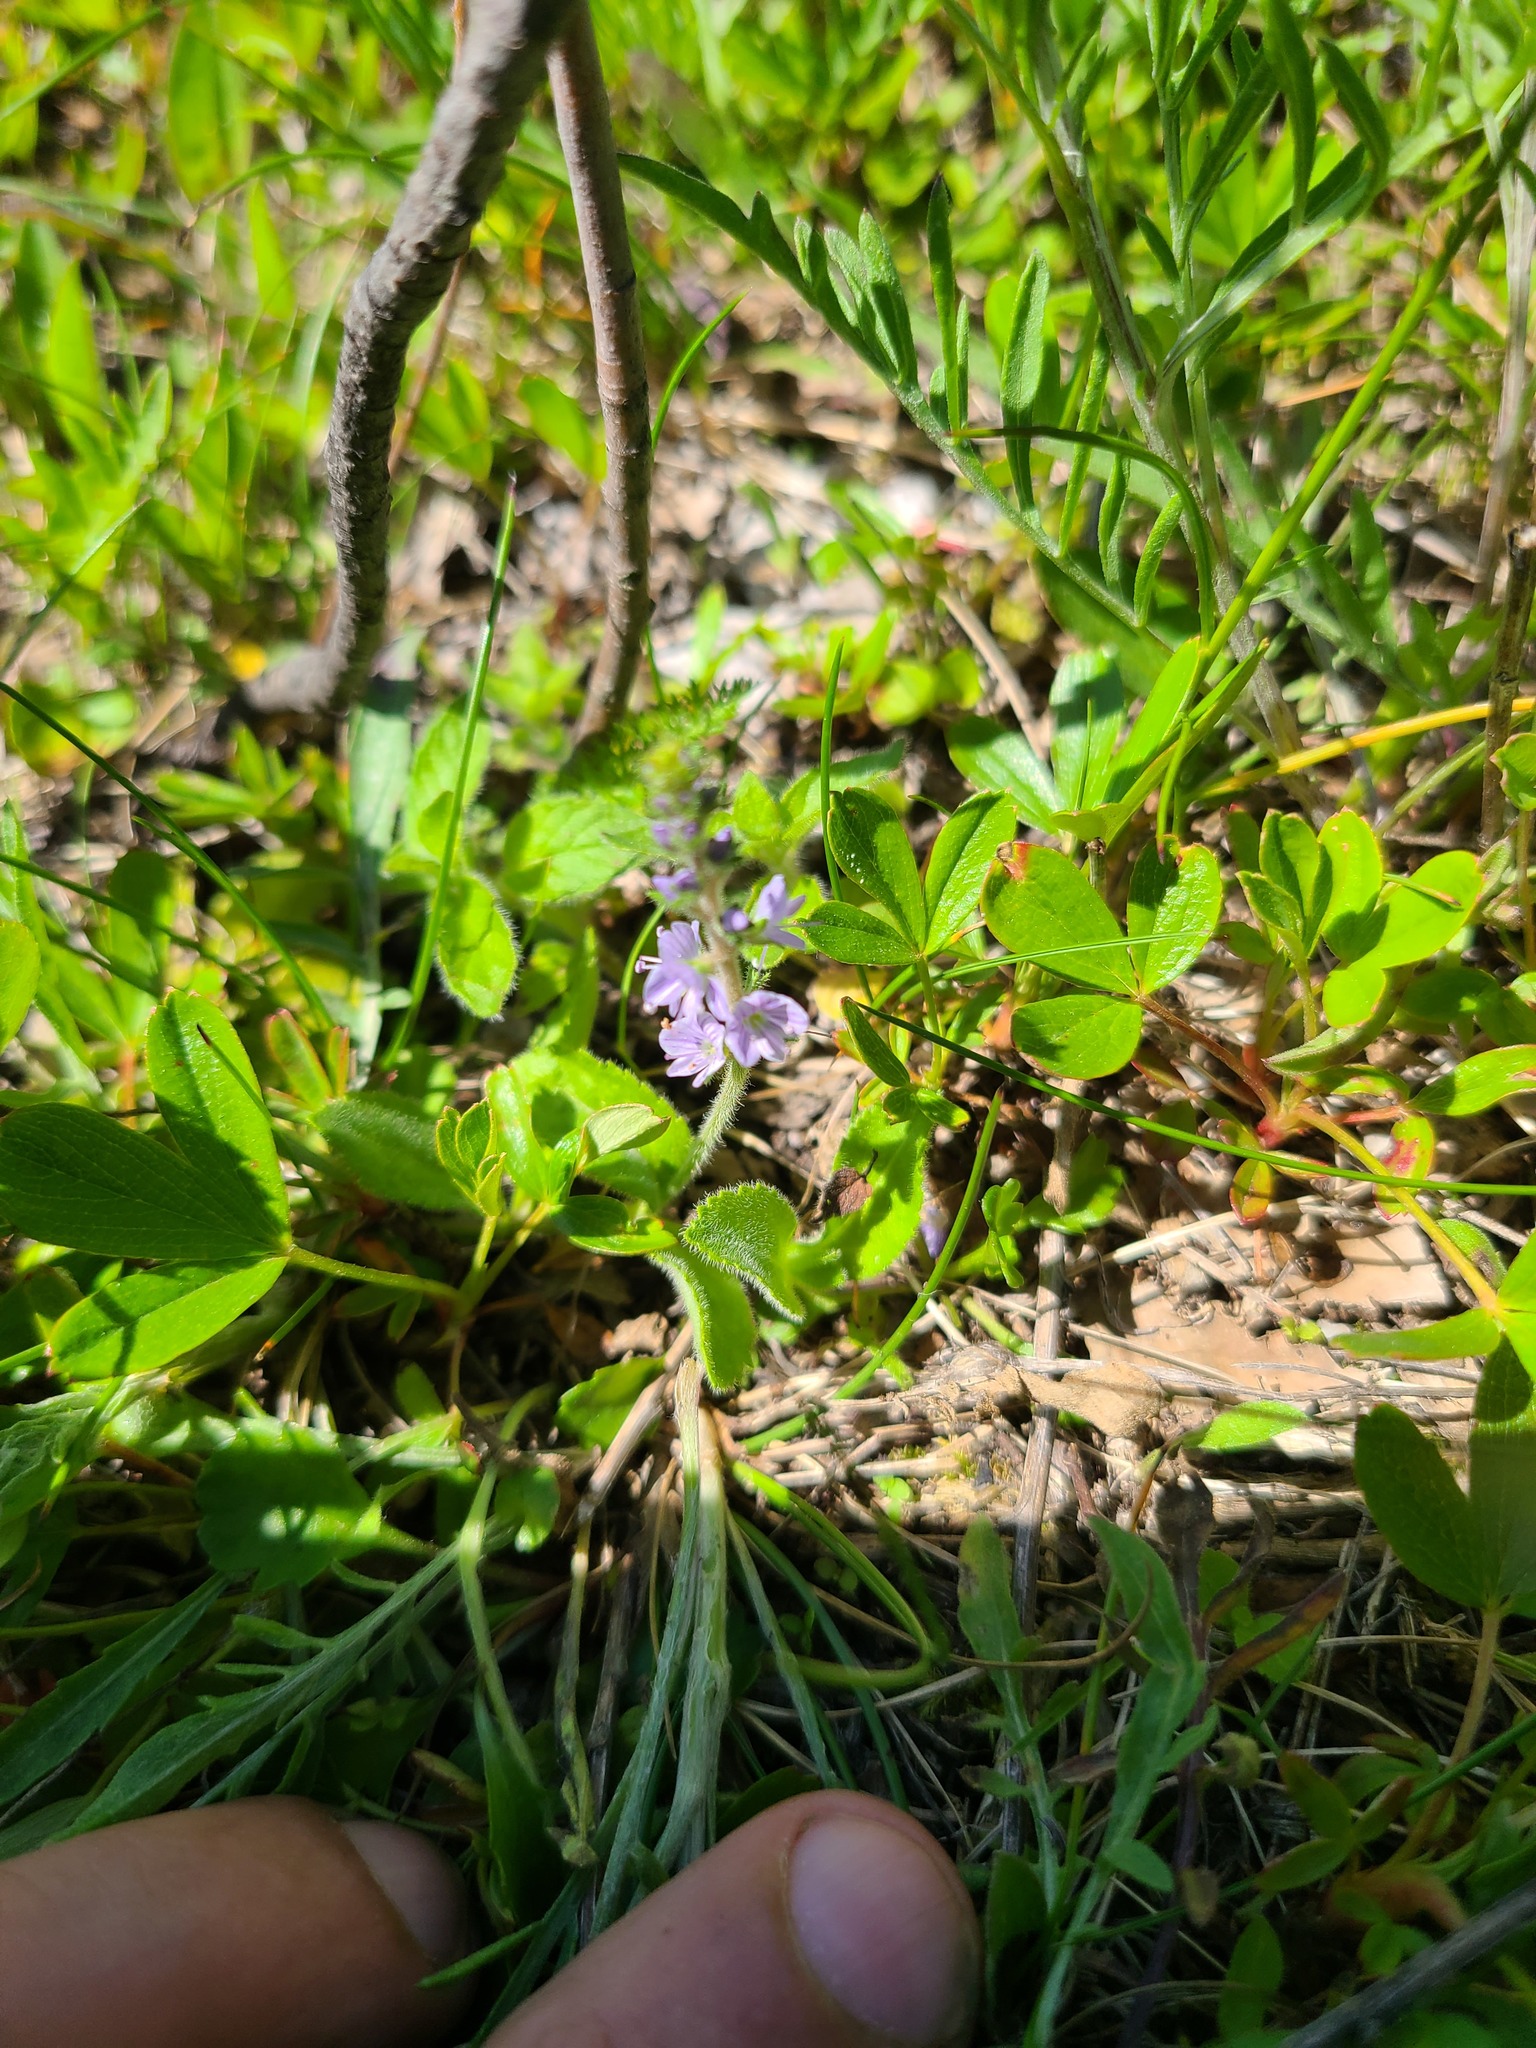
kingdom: Plantae
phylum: Tracheophyta
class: Magnoliopsida
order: Lamiales
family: Plantaginaceae
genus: Veronica
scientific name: Veronica officinalis
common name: Common speedwell
